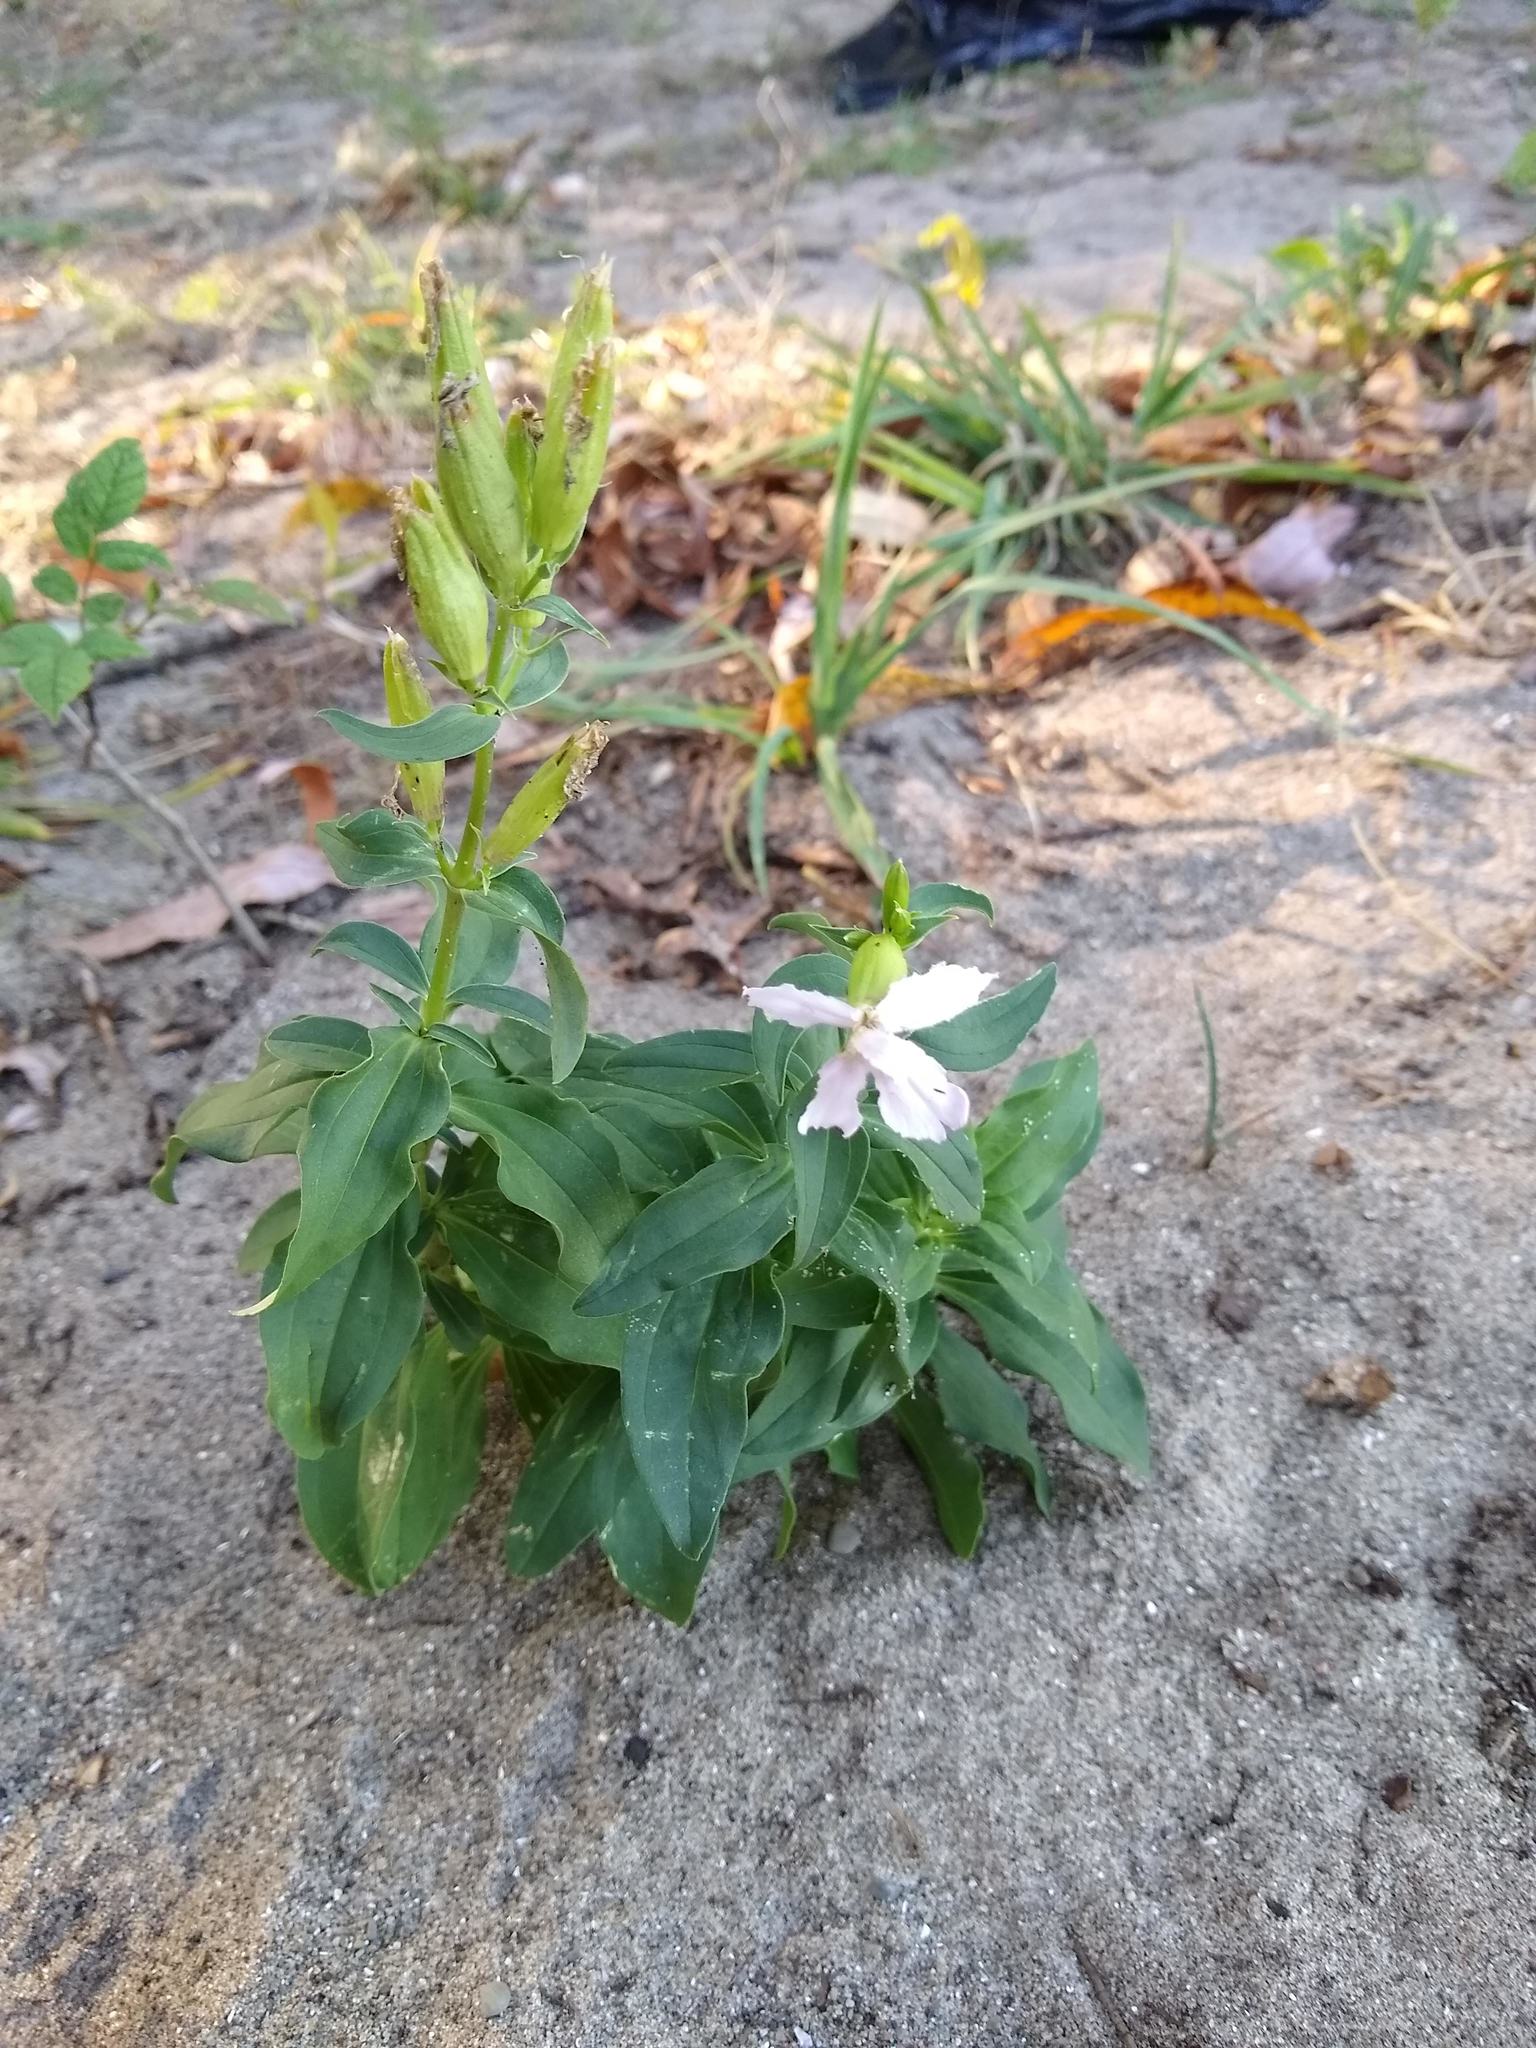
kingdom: Plantae
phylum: Tracheophyta
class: Magnoliopsida
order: Caryophyllales
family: Caryophyllaceae
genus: Saponaria
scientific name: Saponaria officinalis
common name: Soapwort
